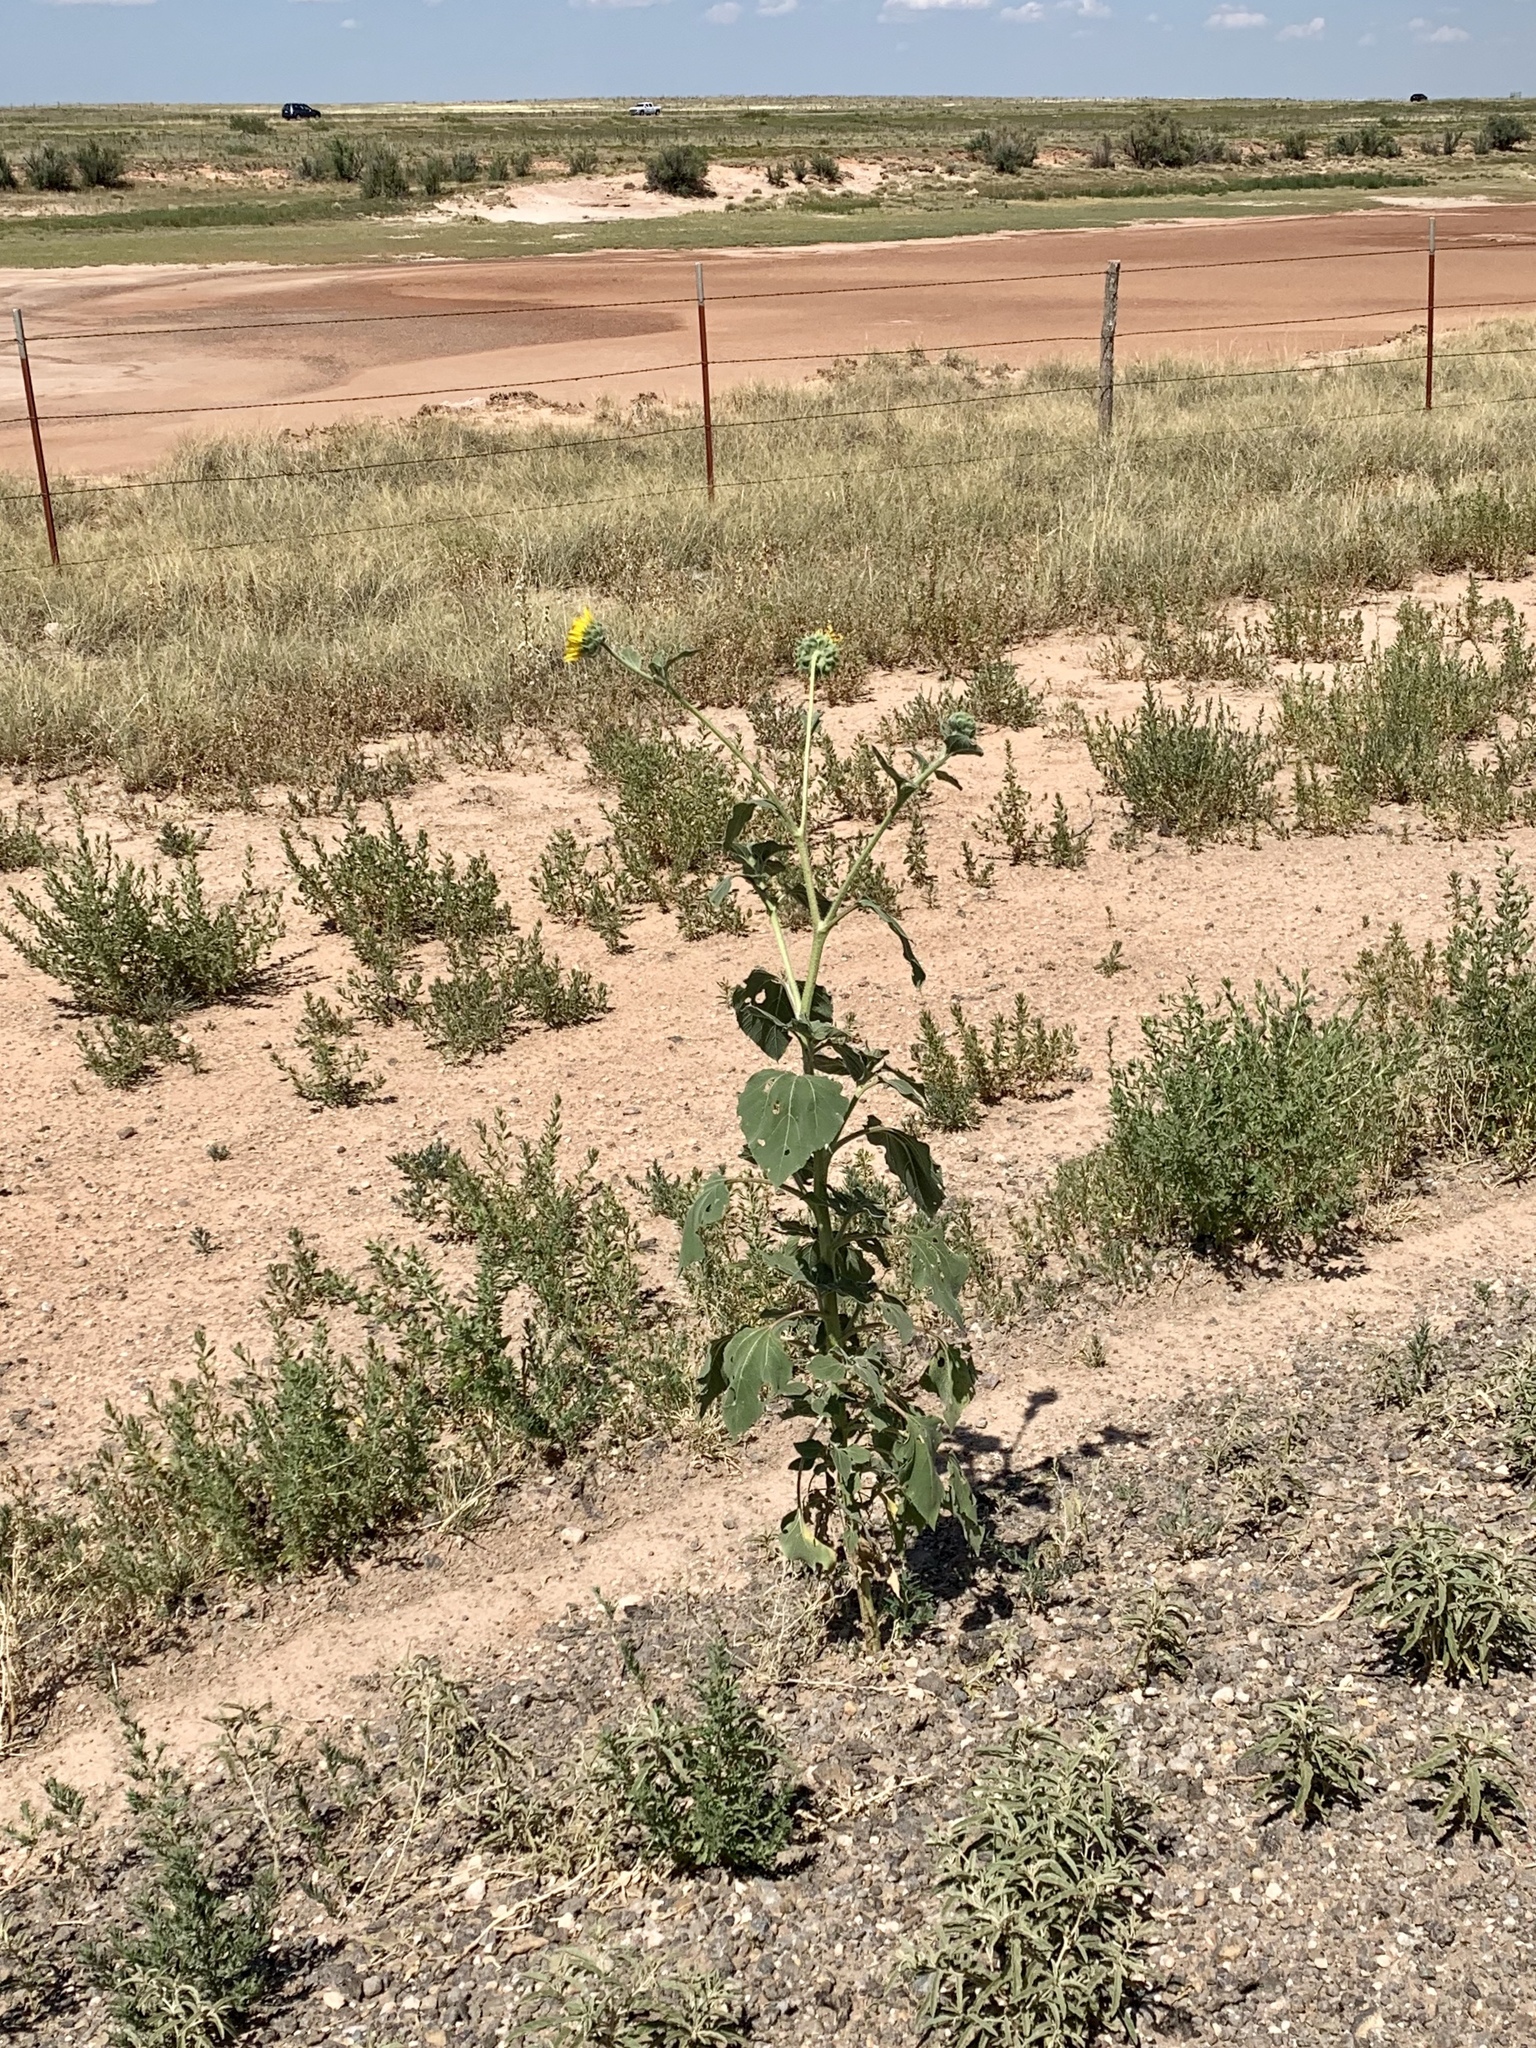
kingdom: Plantae
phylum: Tracheophyta
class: Magnoliopsida
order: Asterales
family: Asteraceae
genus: Helianthus
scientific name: Helianthus annuus
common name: Sunflower
